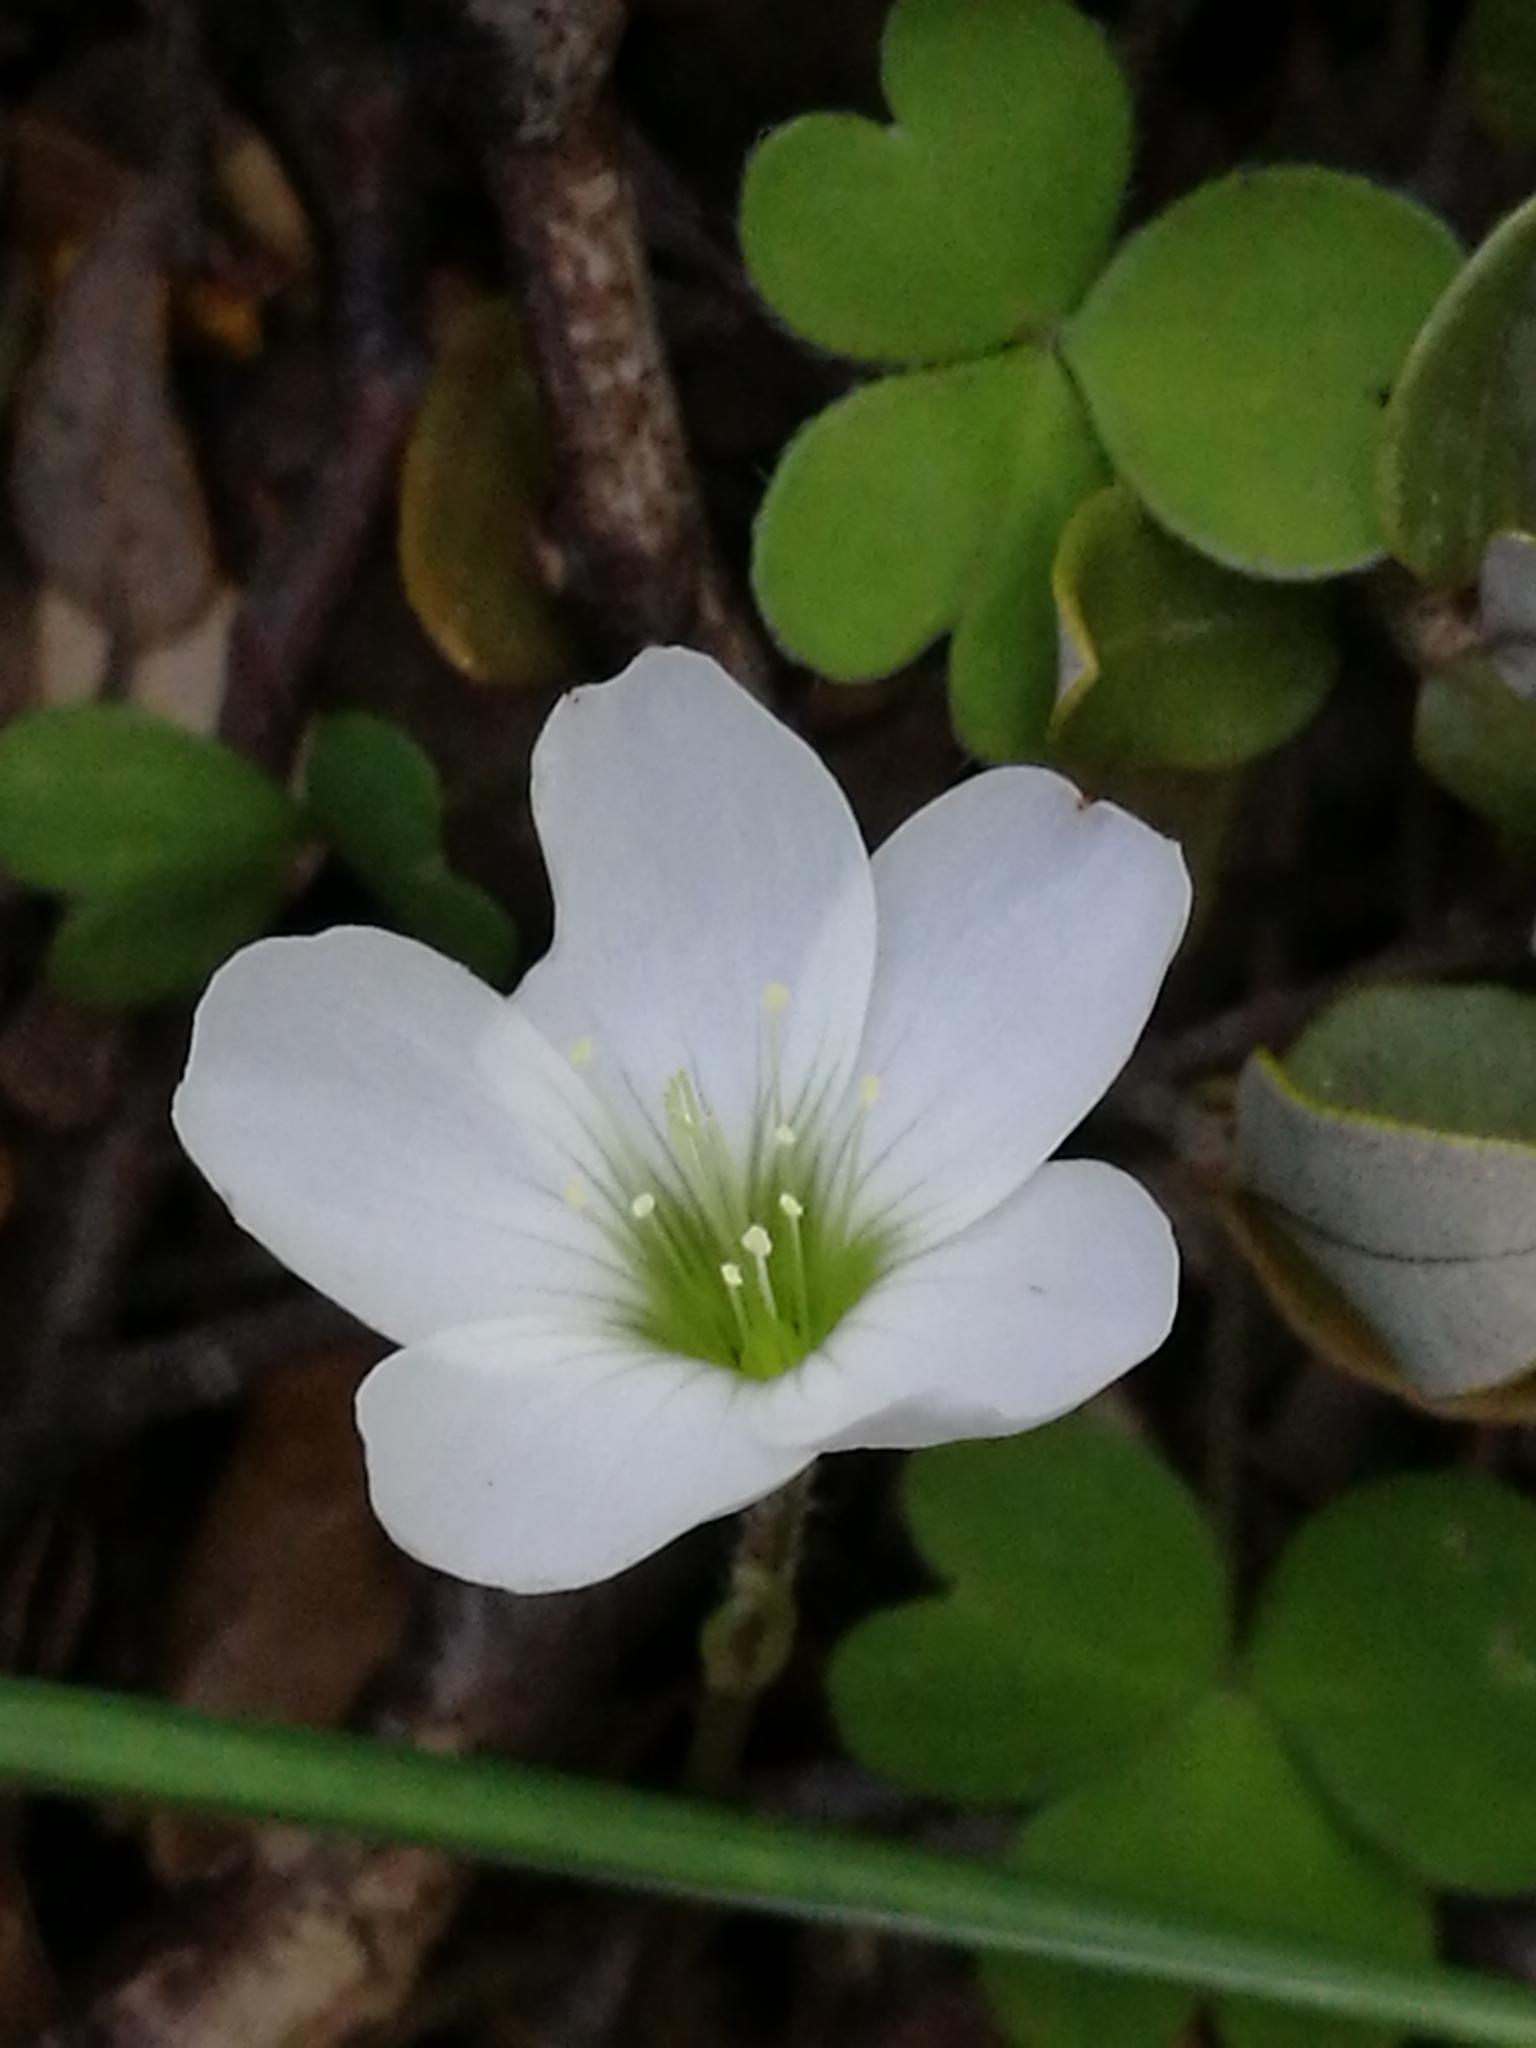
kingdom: Plantae
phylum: Tracheophyta
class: Magnoliopsida
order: Oxalidales
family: Oxalidaceae
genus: Oxalis
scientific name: Oxalis magellanica
